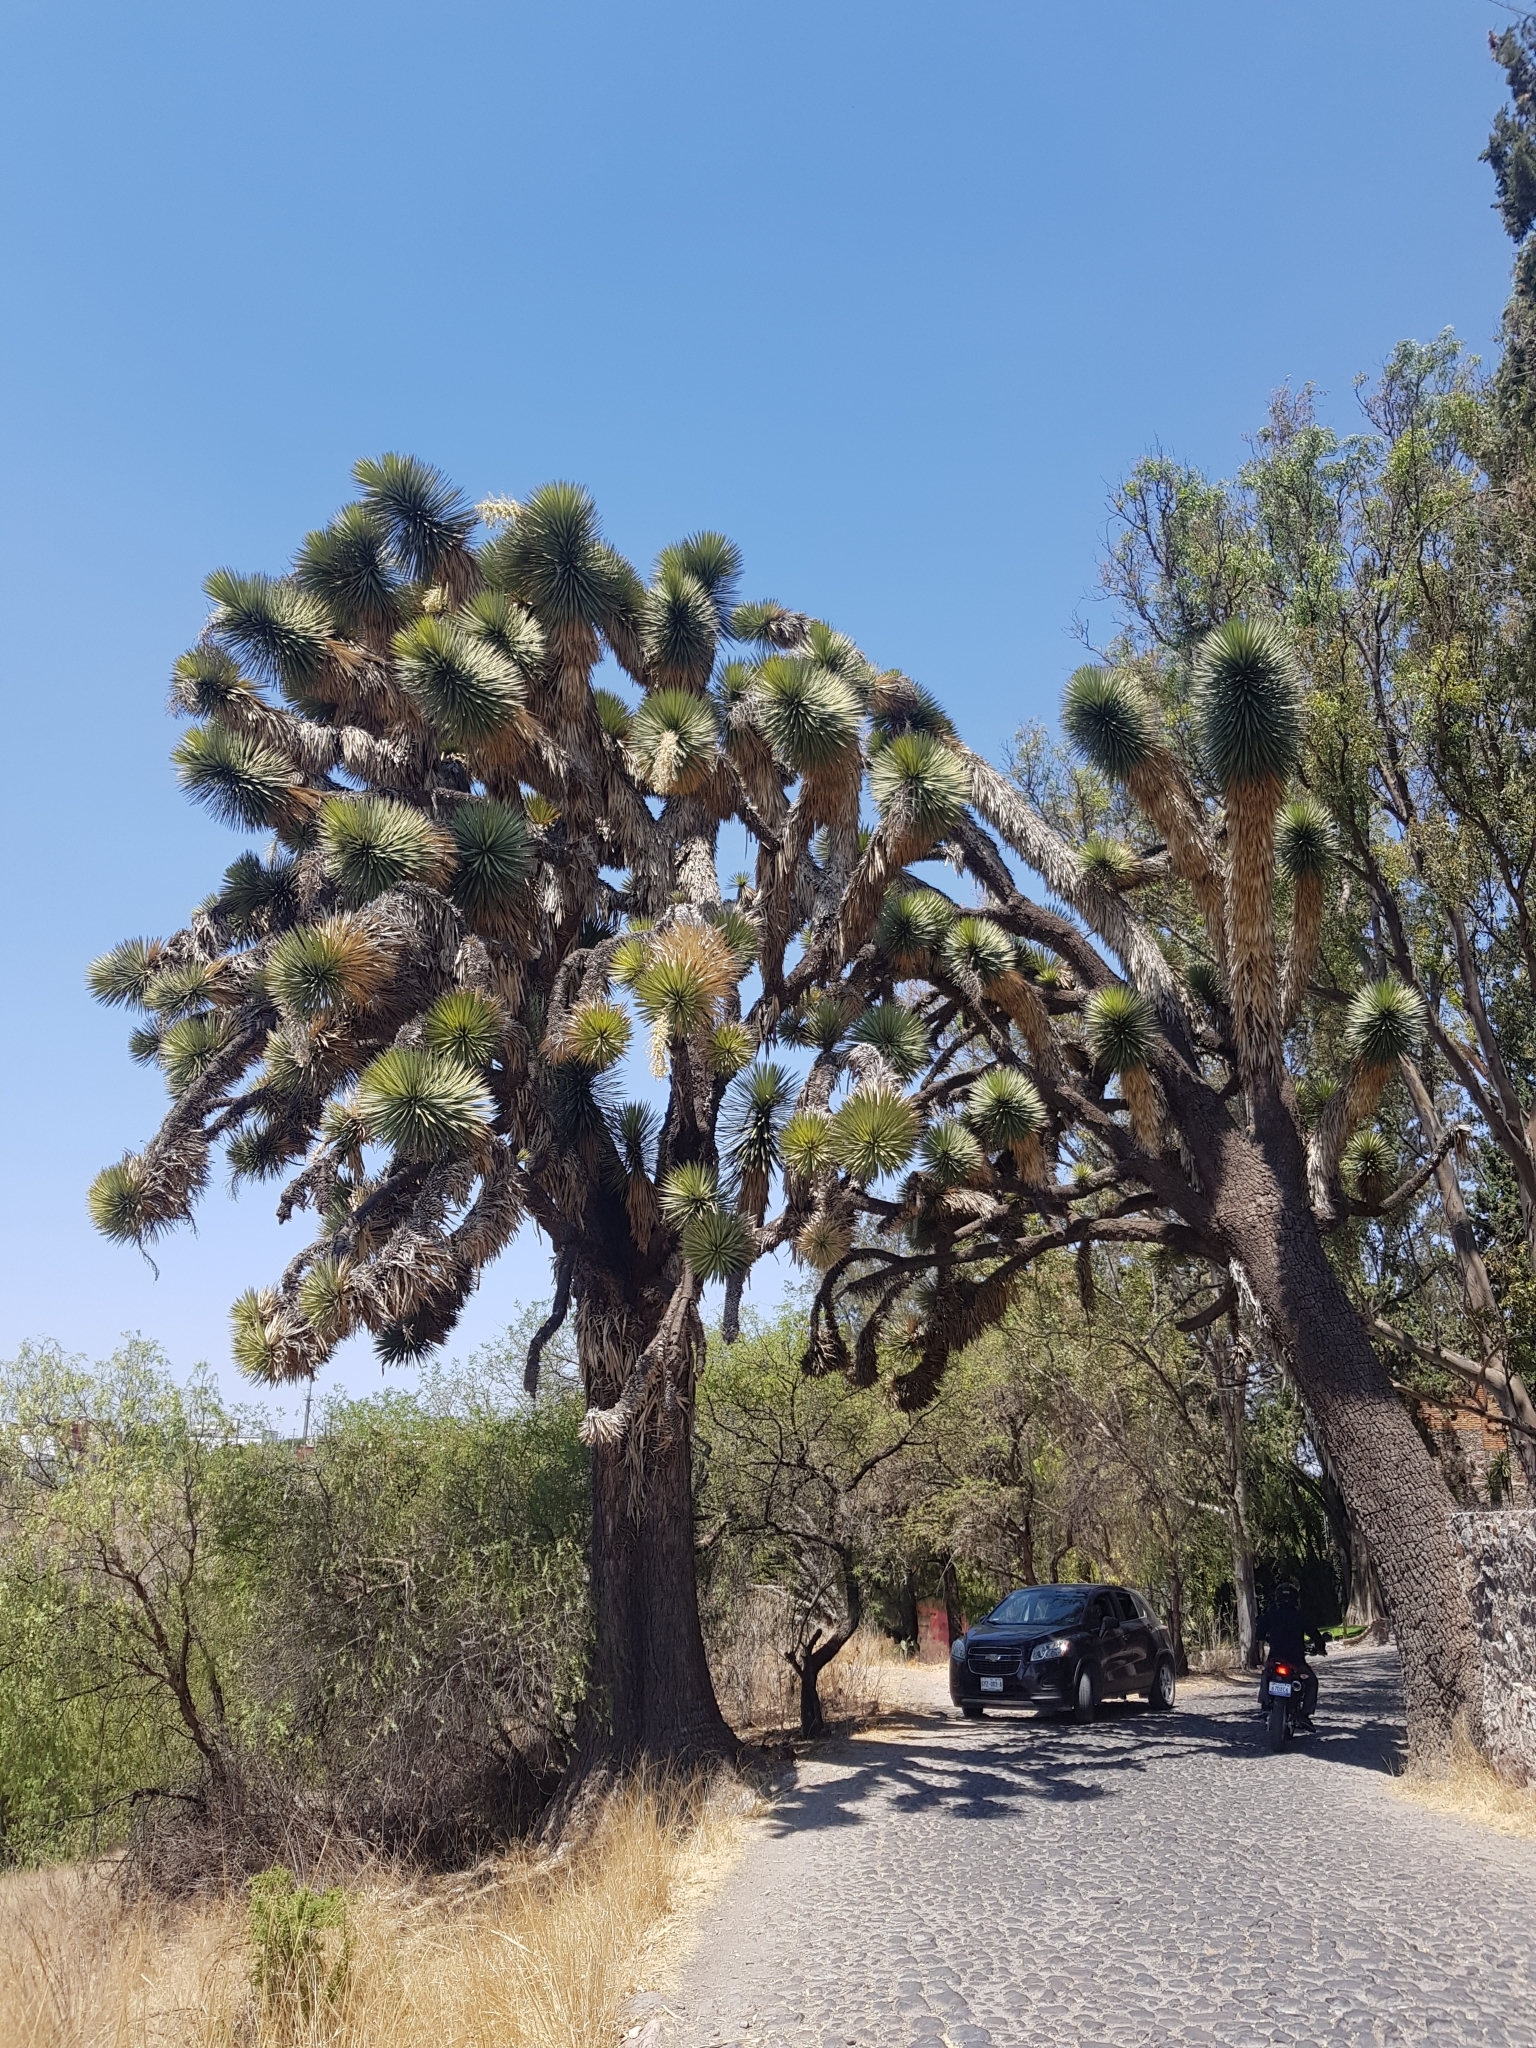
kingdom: Plantae
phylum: Tracheophyta
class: Liliopsida
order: Asparagales
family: Asparagaceae
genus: Yucca
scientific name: Yucca filifera
